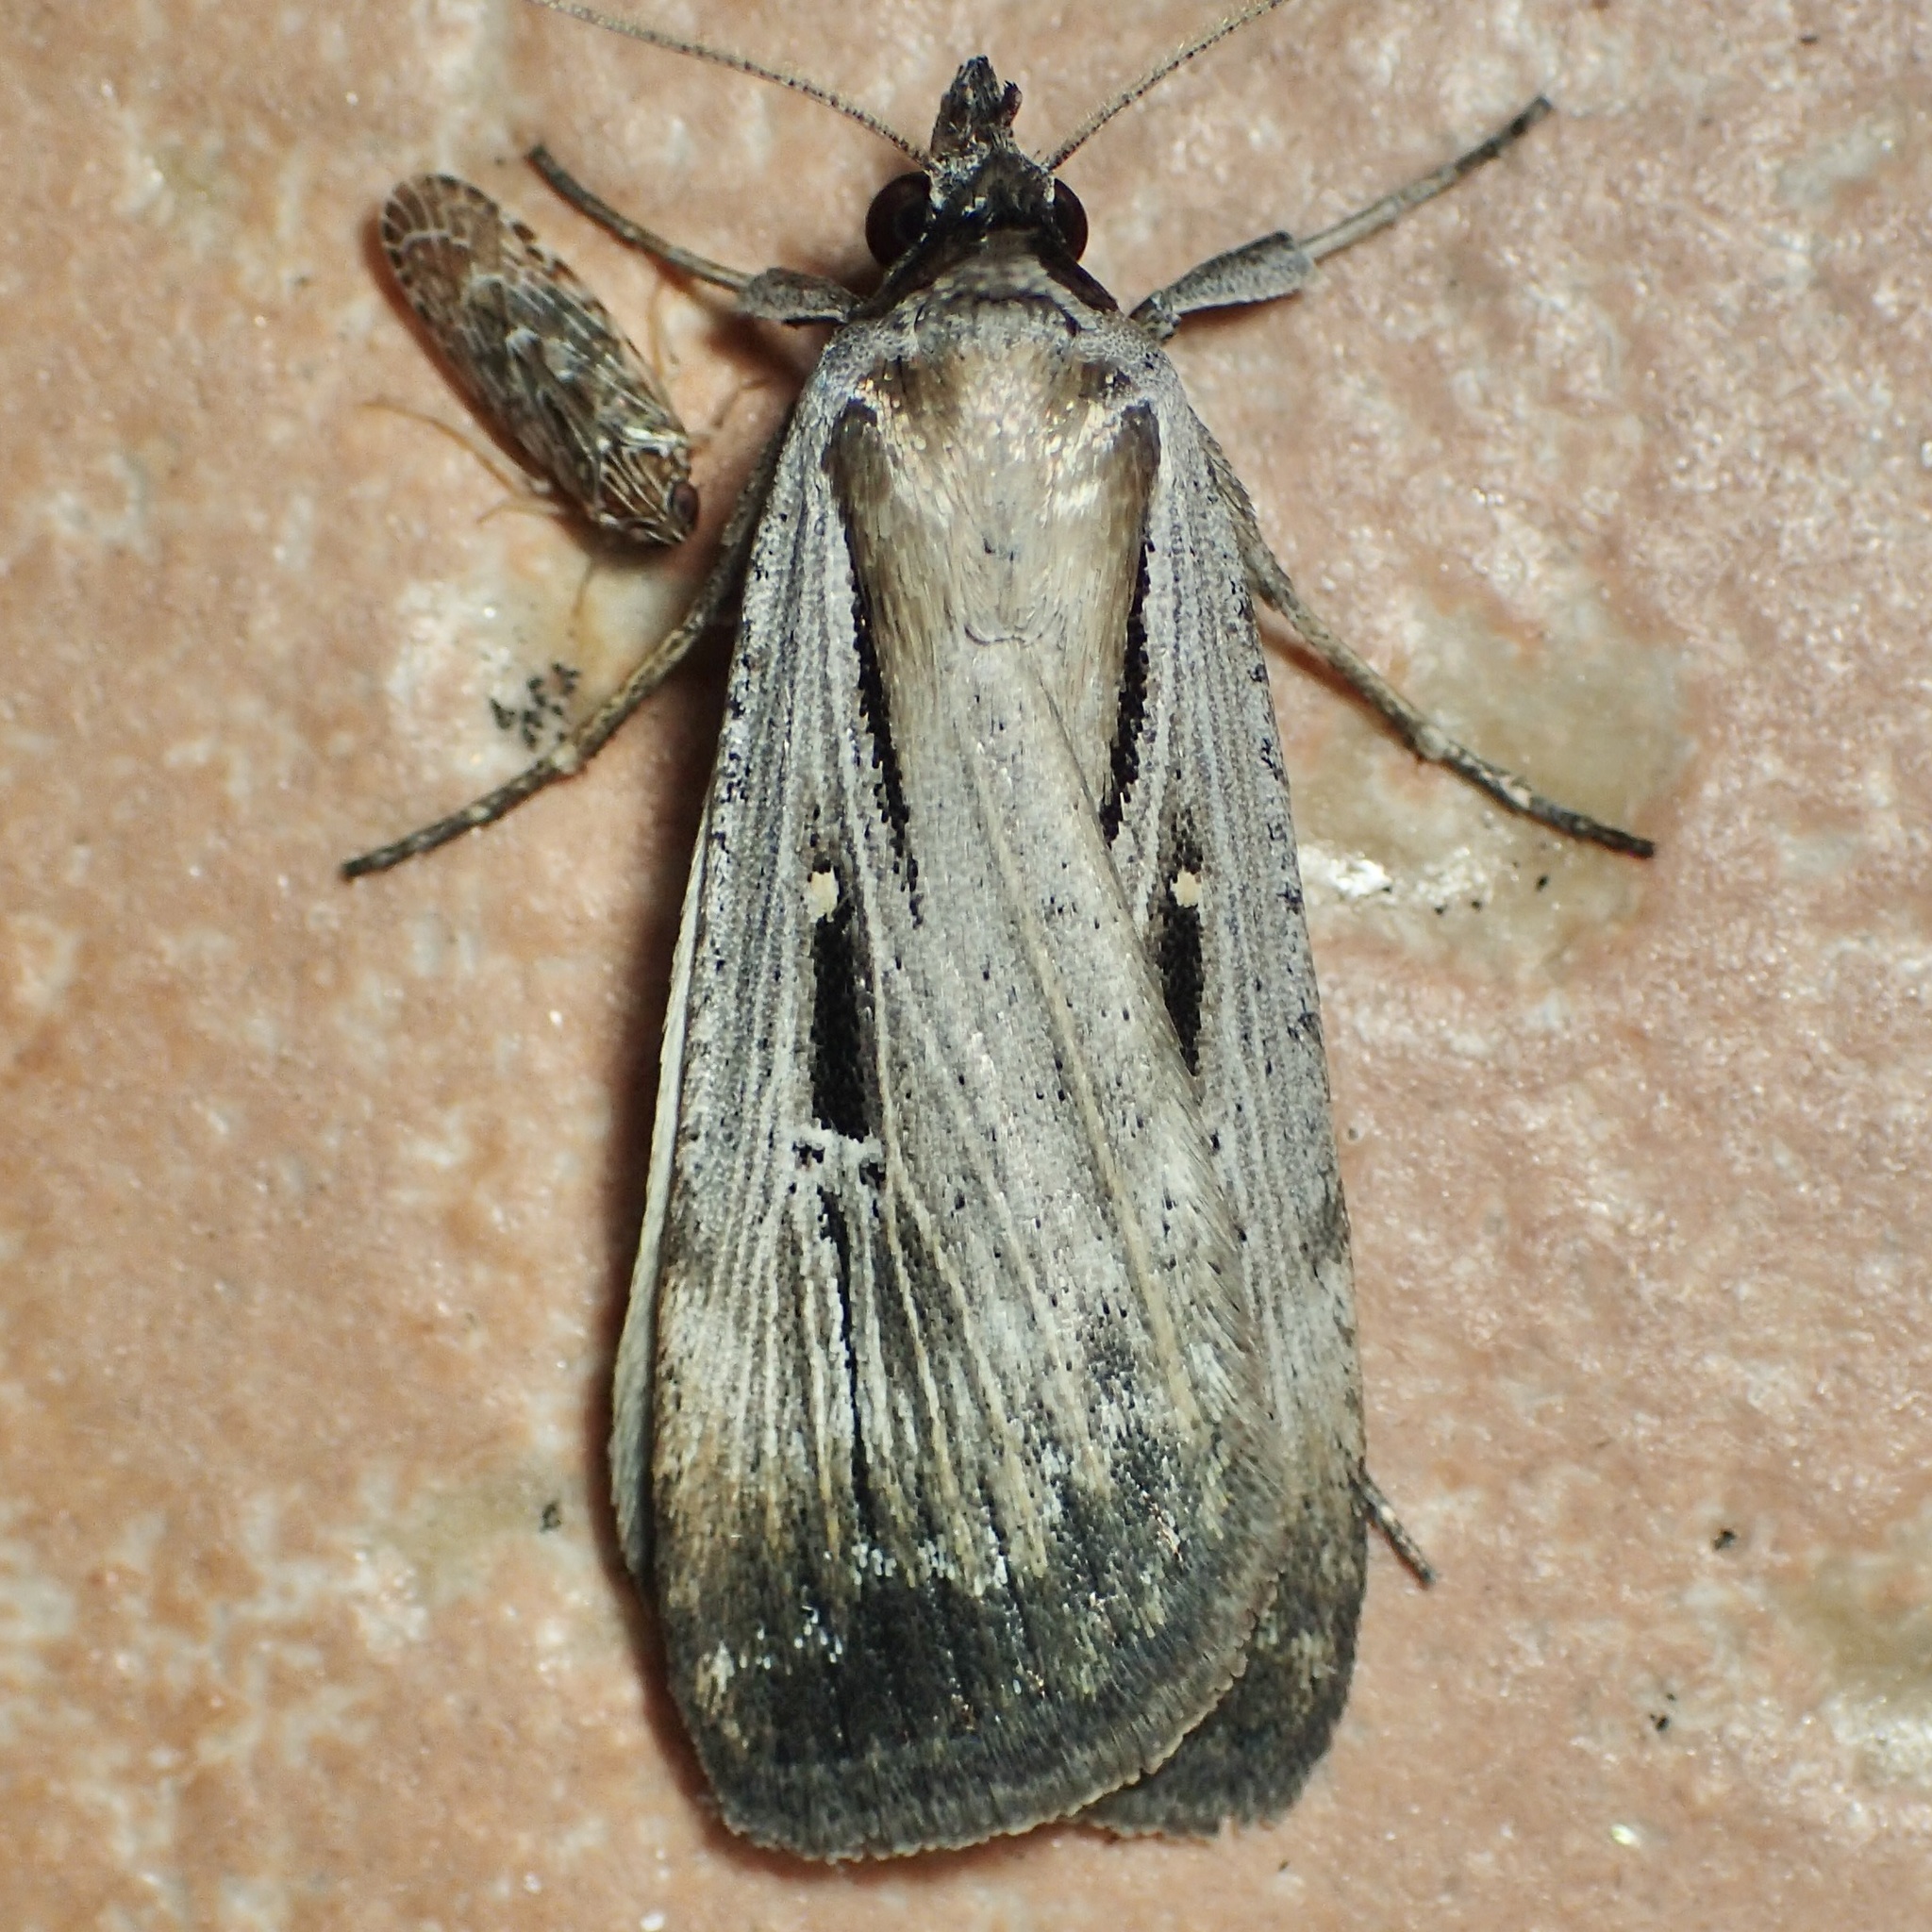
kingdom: Animalia
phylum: Arthropoda
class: Insecta
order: Lepidoptera
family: Noctuidae
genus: Tathorhynchus
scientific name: Tathorhynchus exsiccata
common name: Levant blackneck moth
